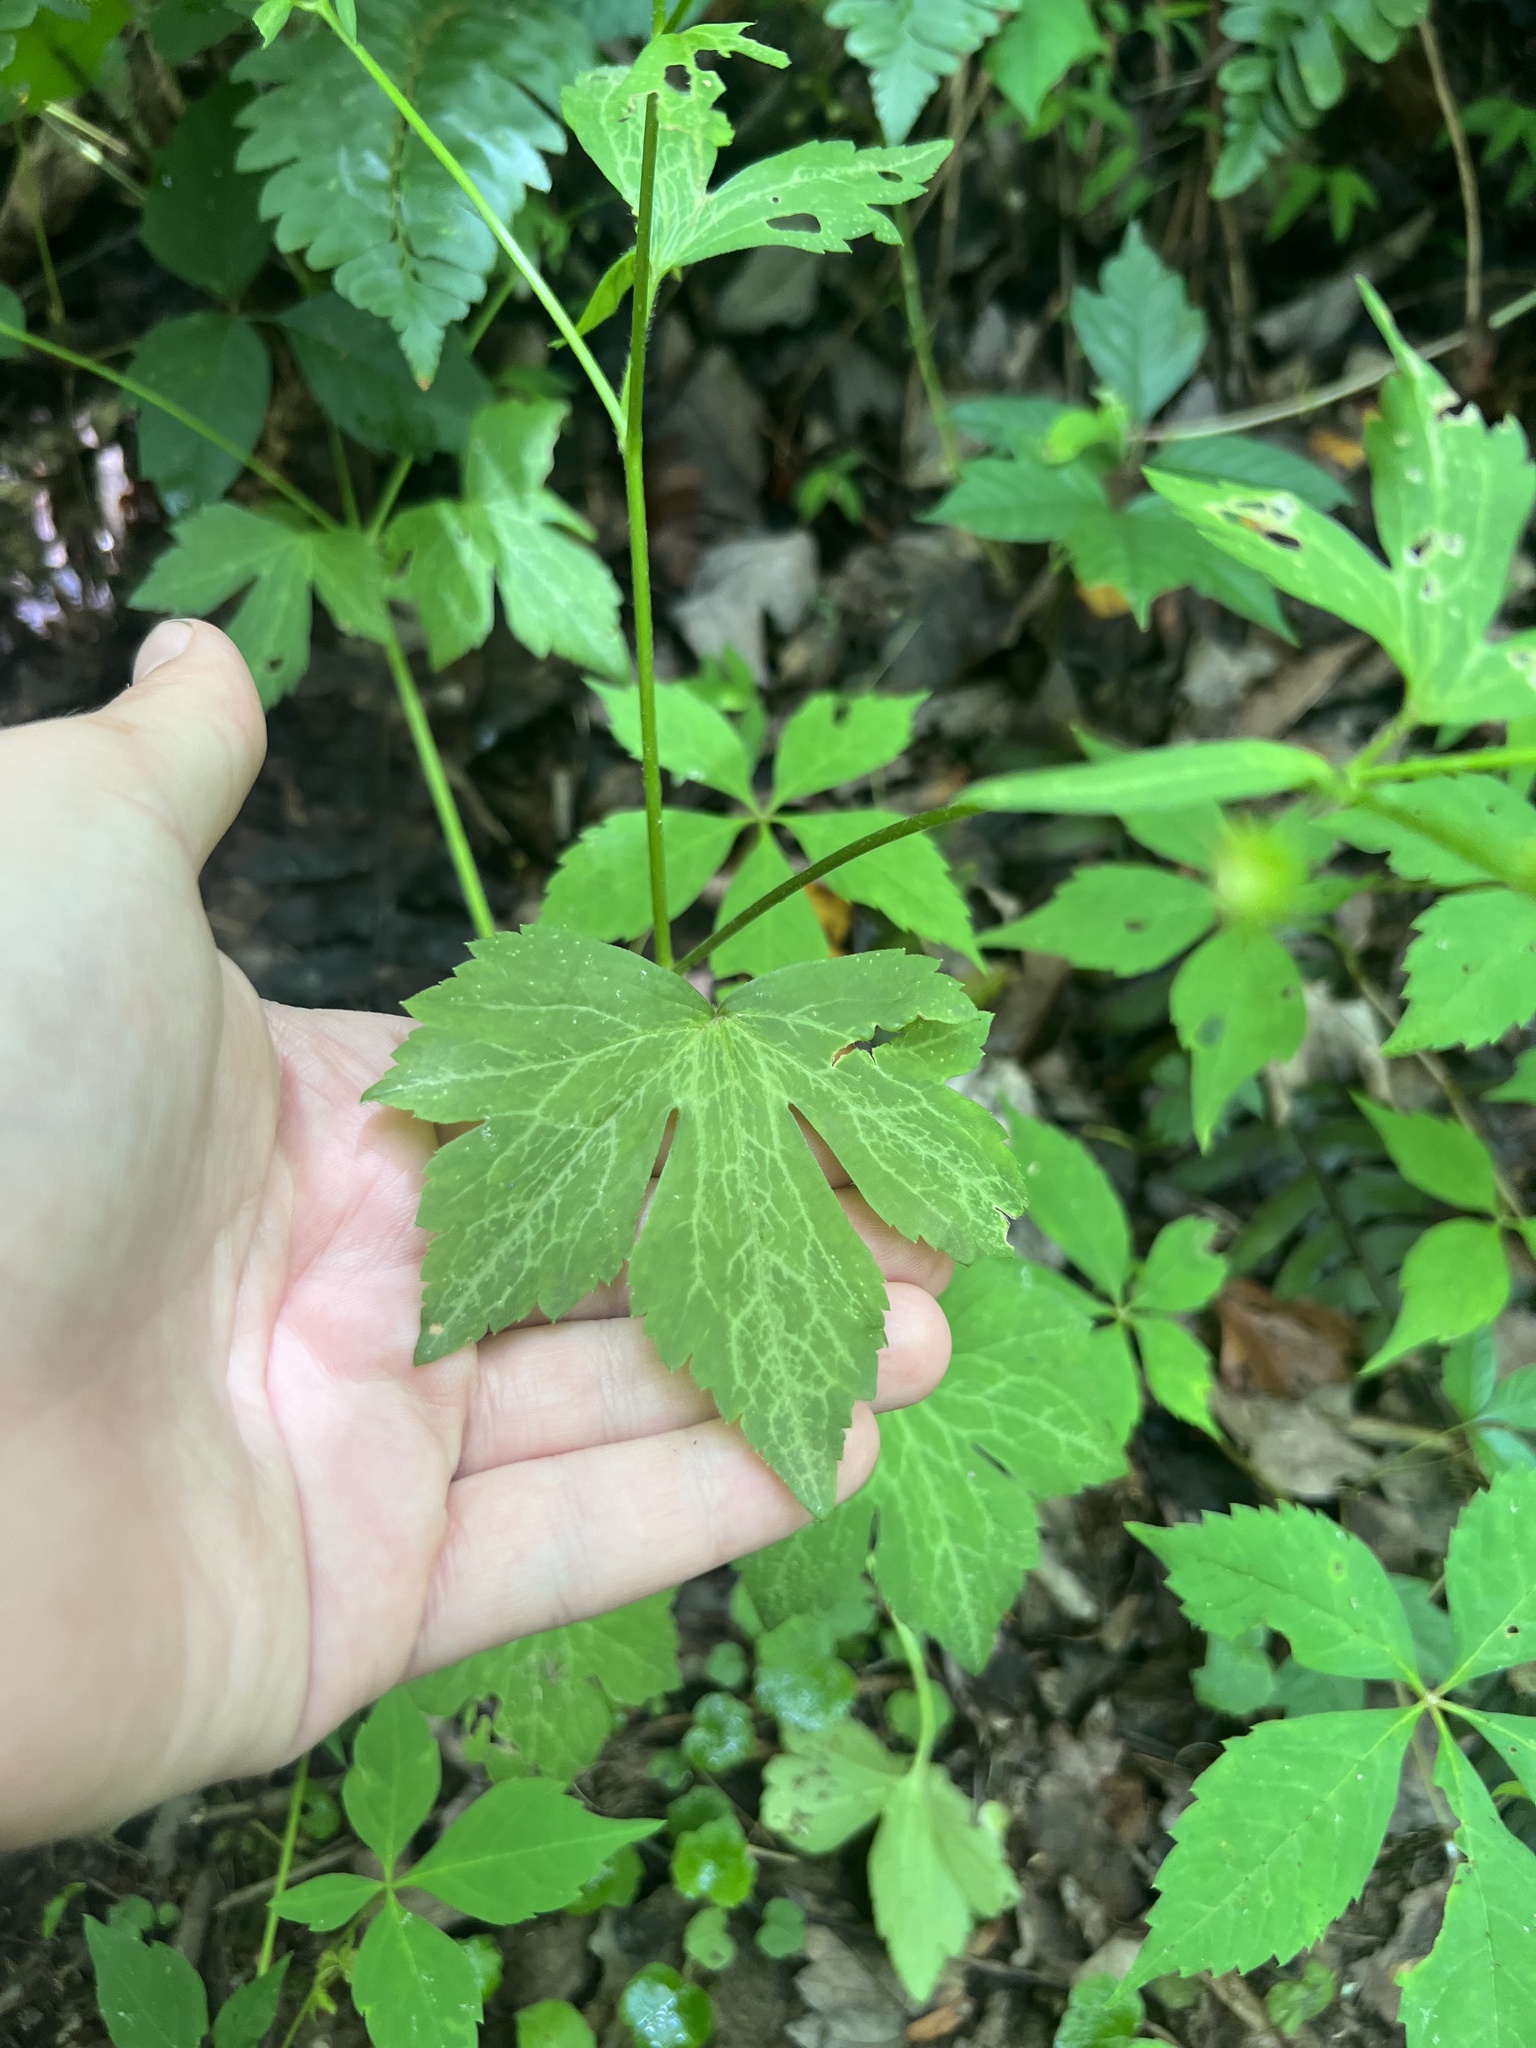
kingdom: Plantae
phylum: Tracheophyta
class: Magnoliopsida
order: Ranunculales
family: Ranunculaceae
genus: Ranunculus
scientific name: Ranunculus recurvatus
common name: Blisterwort
